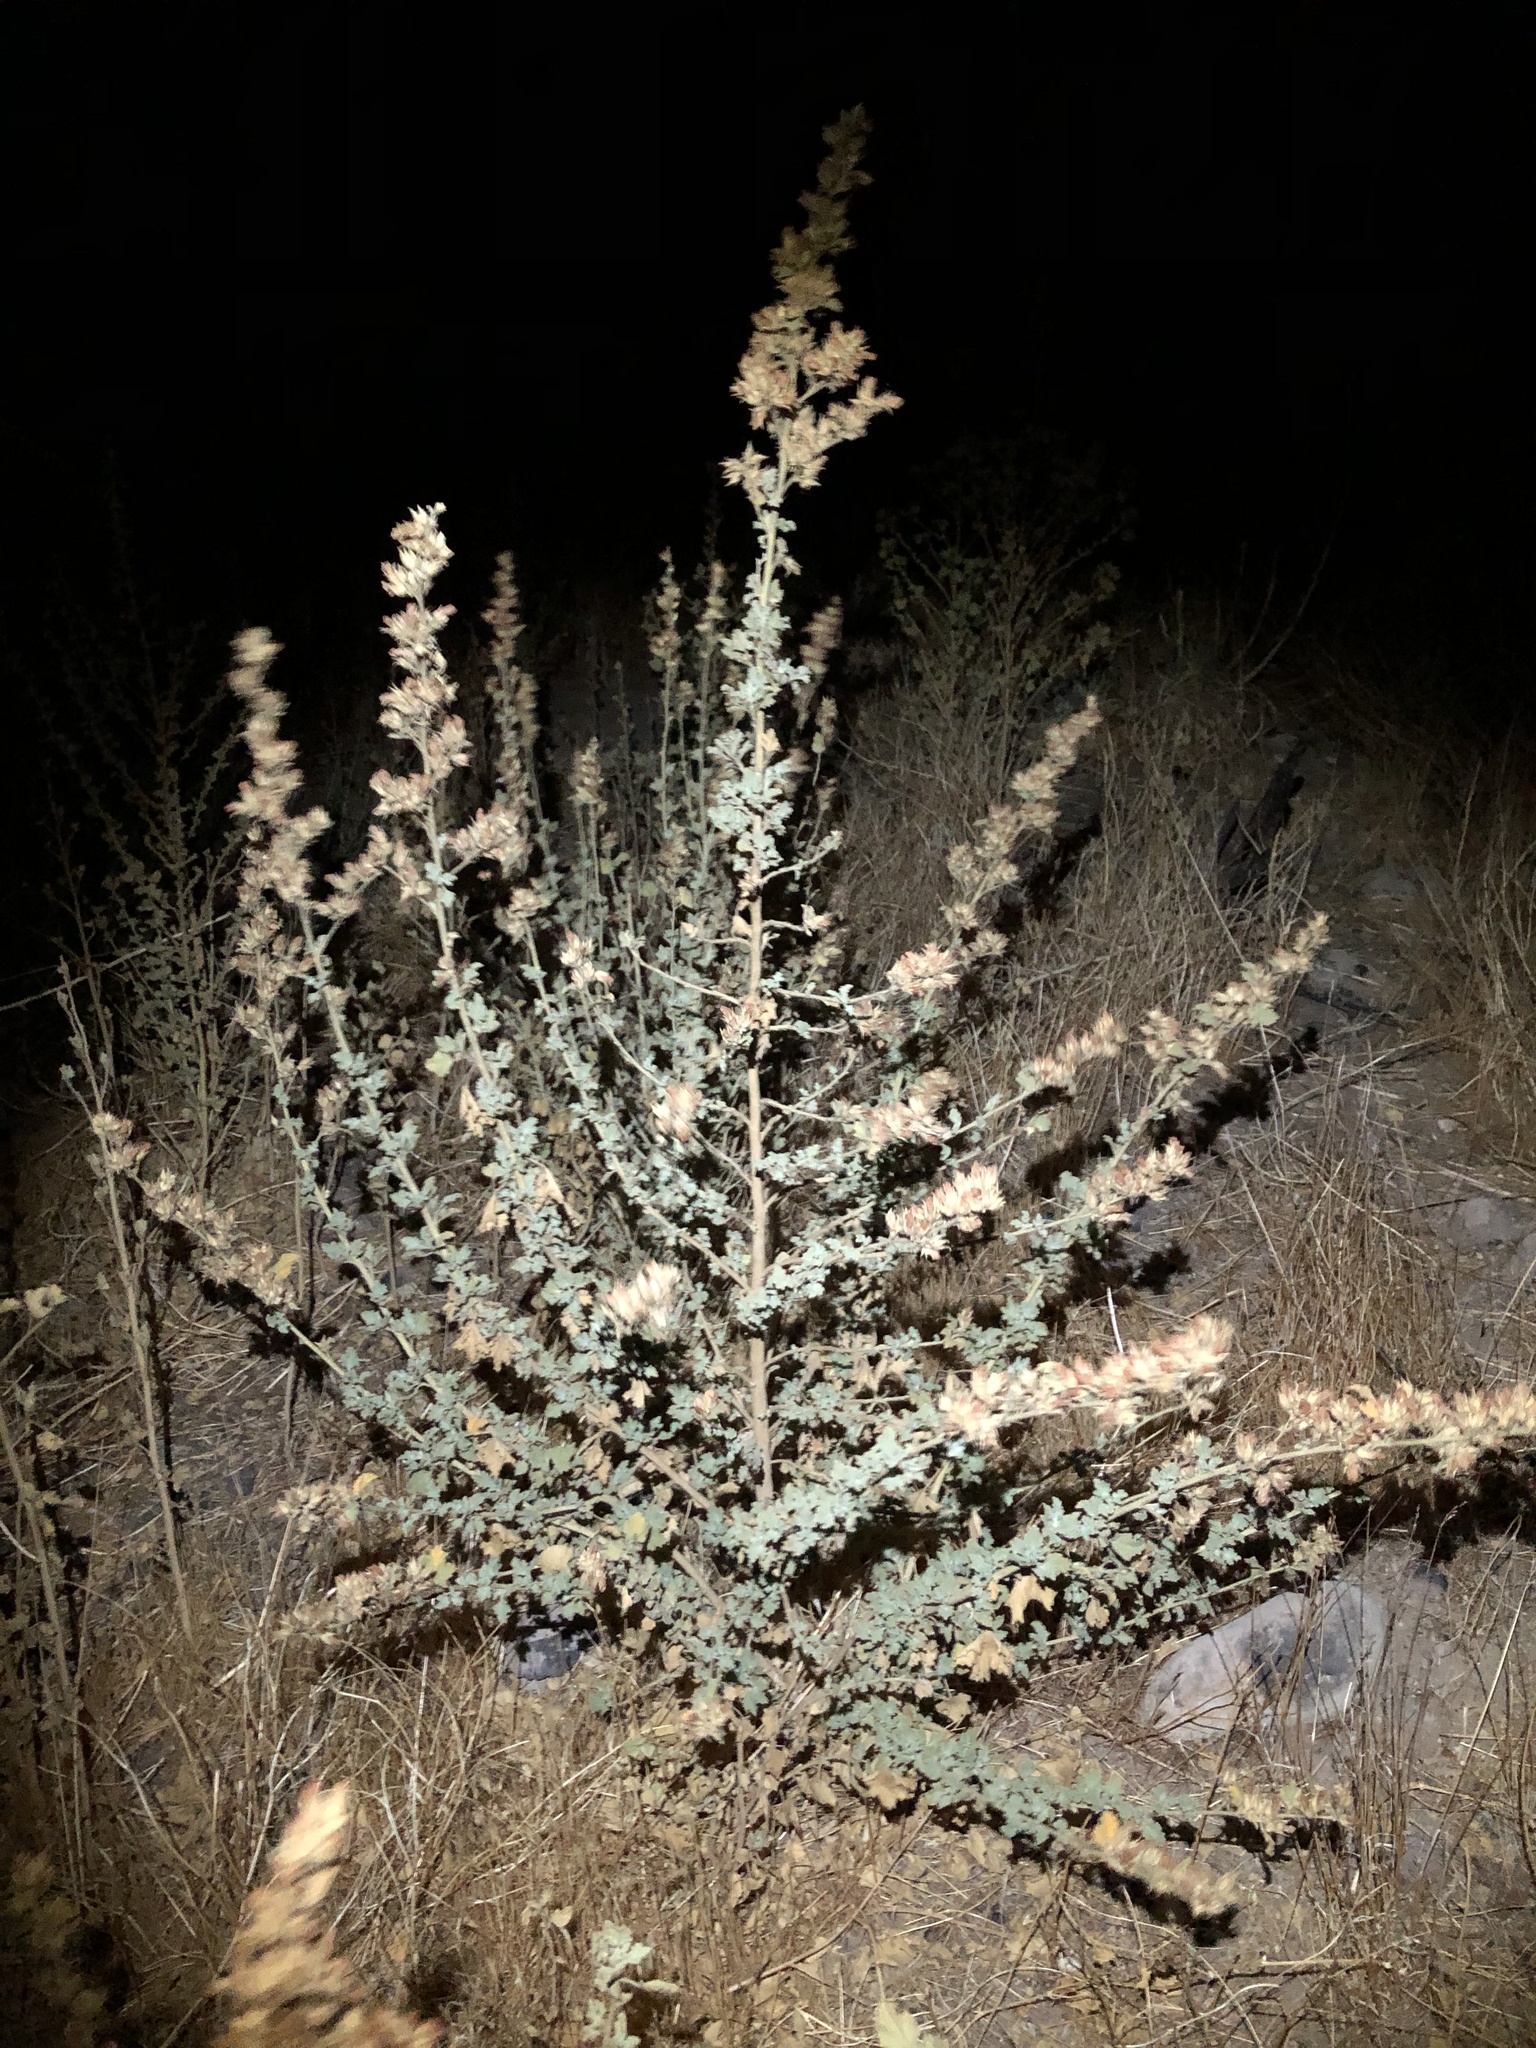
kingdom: Plantae
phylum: Tracheophyta
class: Magnoliopsida
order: Malvales
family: Malvaceae
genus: Malacothamnus
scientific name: Malacothamnus marrubioides
